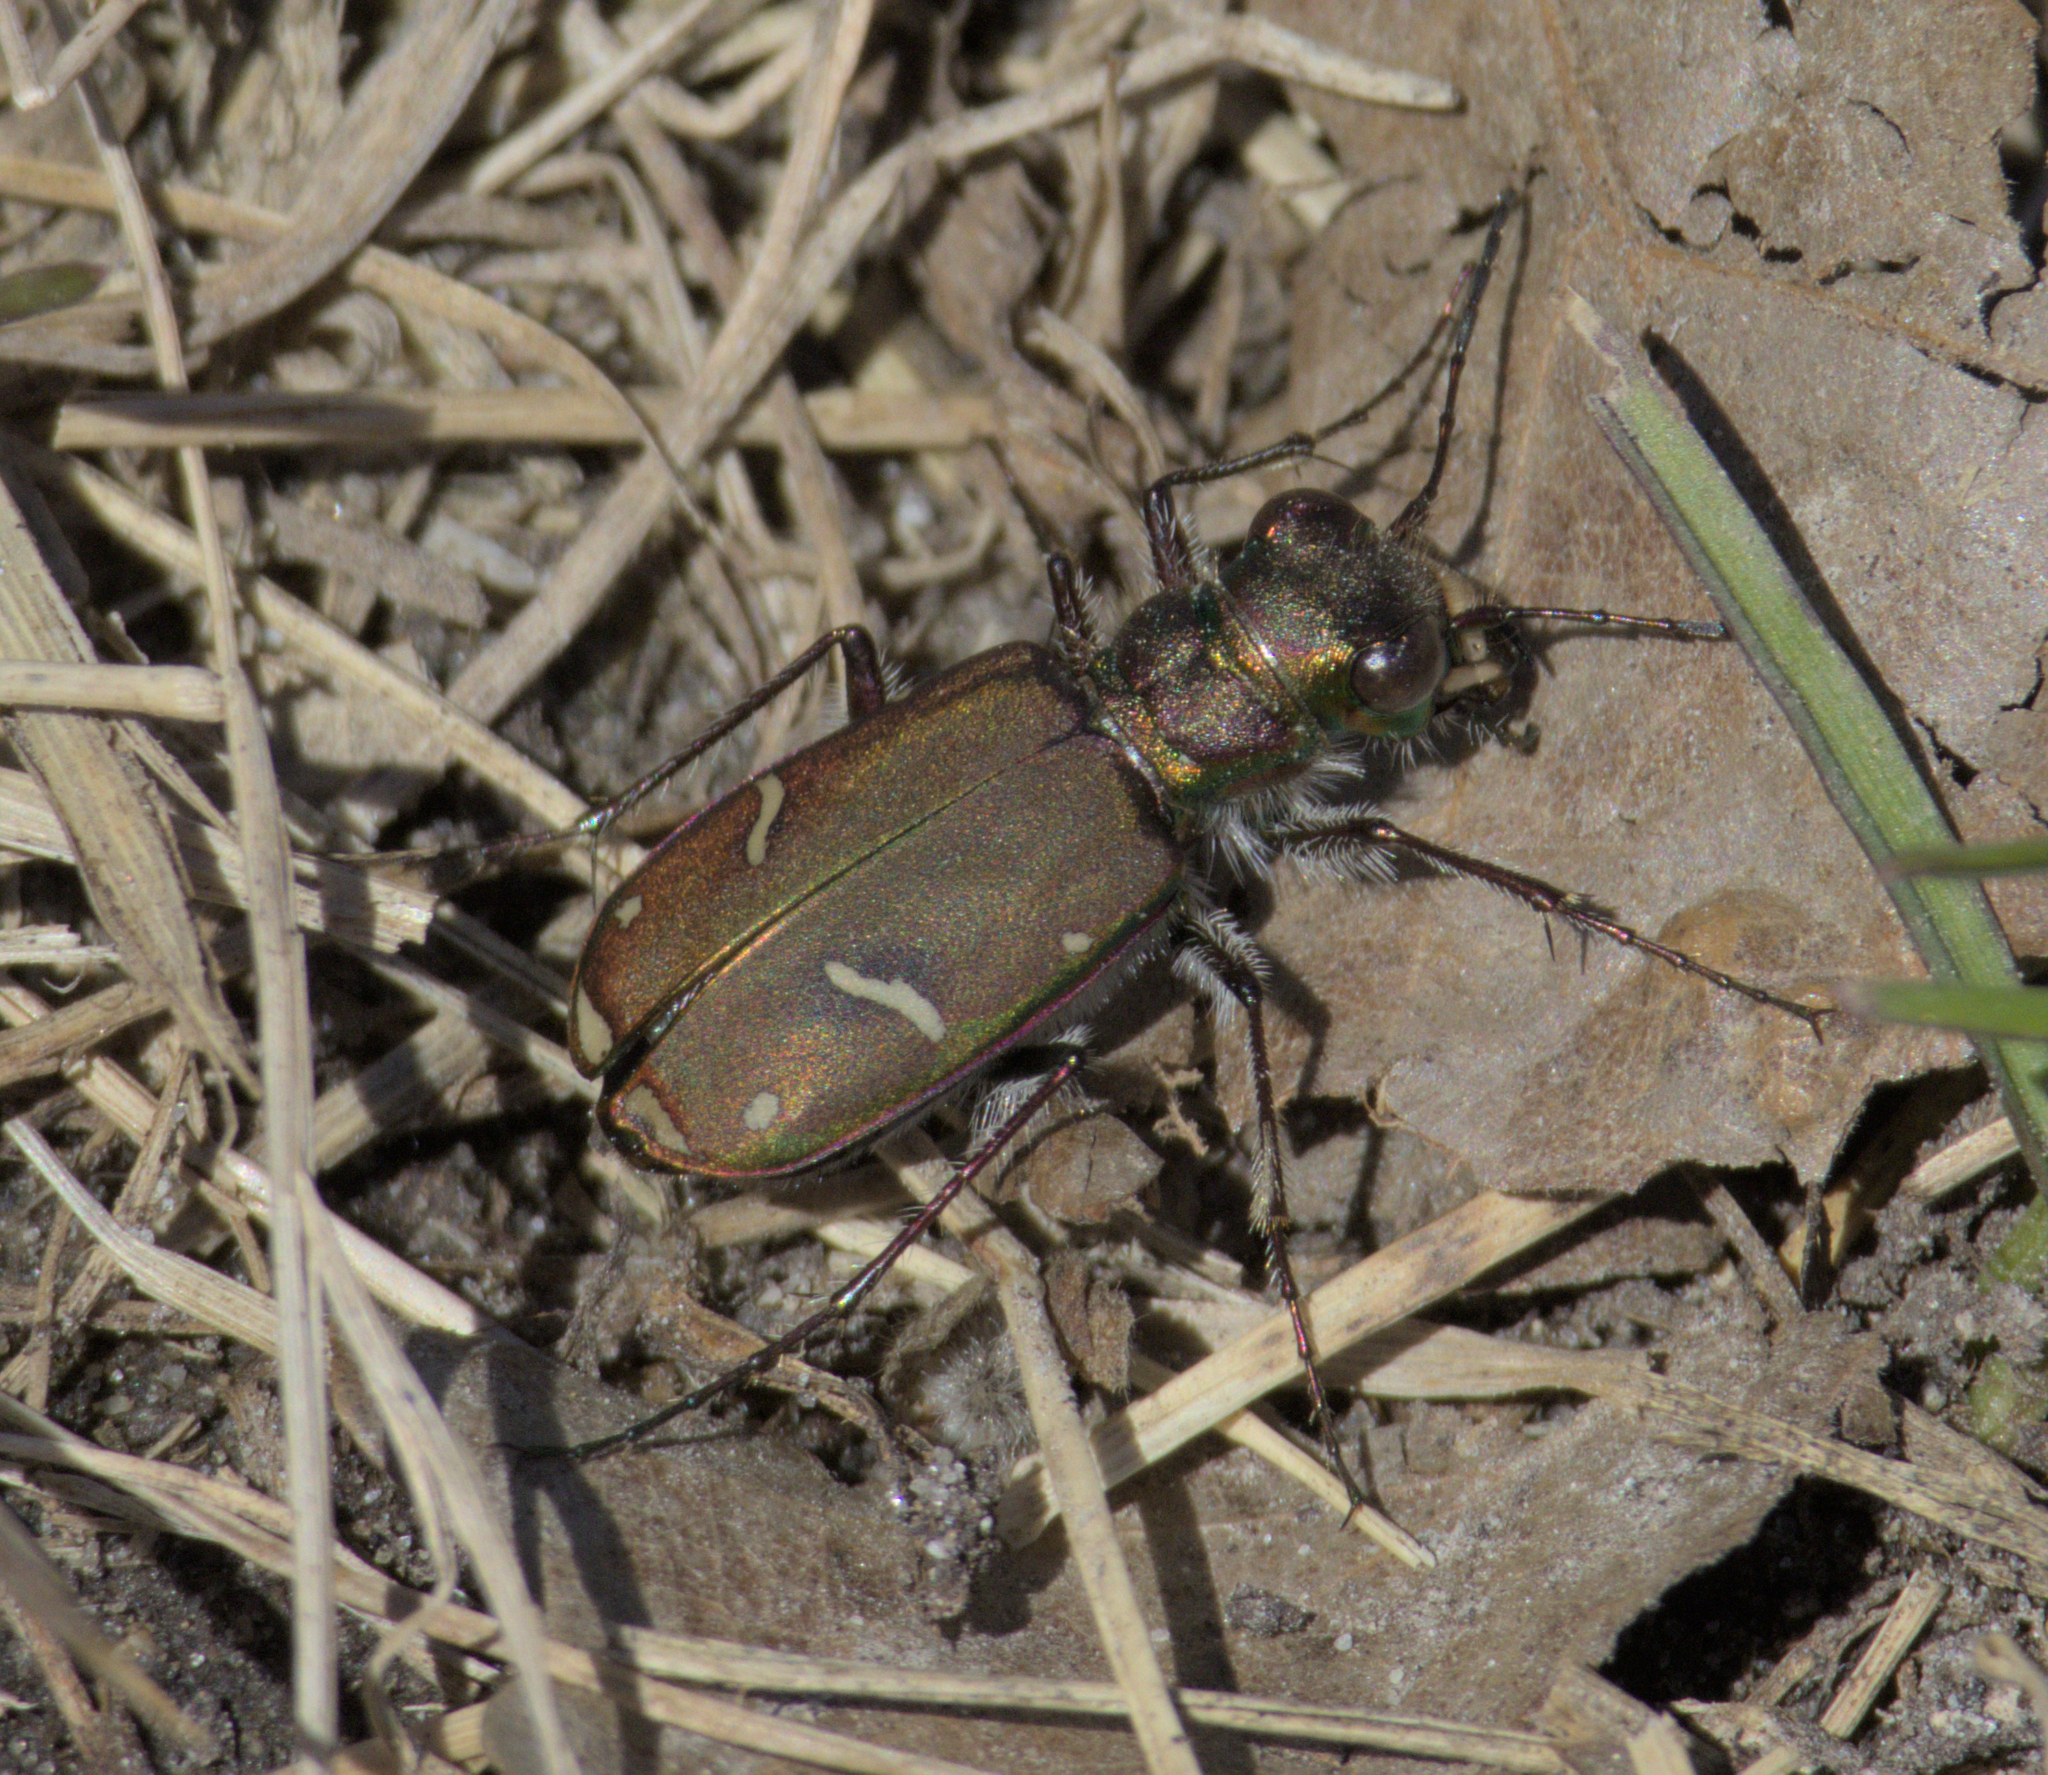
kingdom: Animalia
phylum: Arthropoda
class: Insecta
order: Coleoptera
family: Carabidae
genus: Cicindela
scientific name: Cicindela purpurea
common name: Cow path tiger beetle
